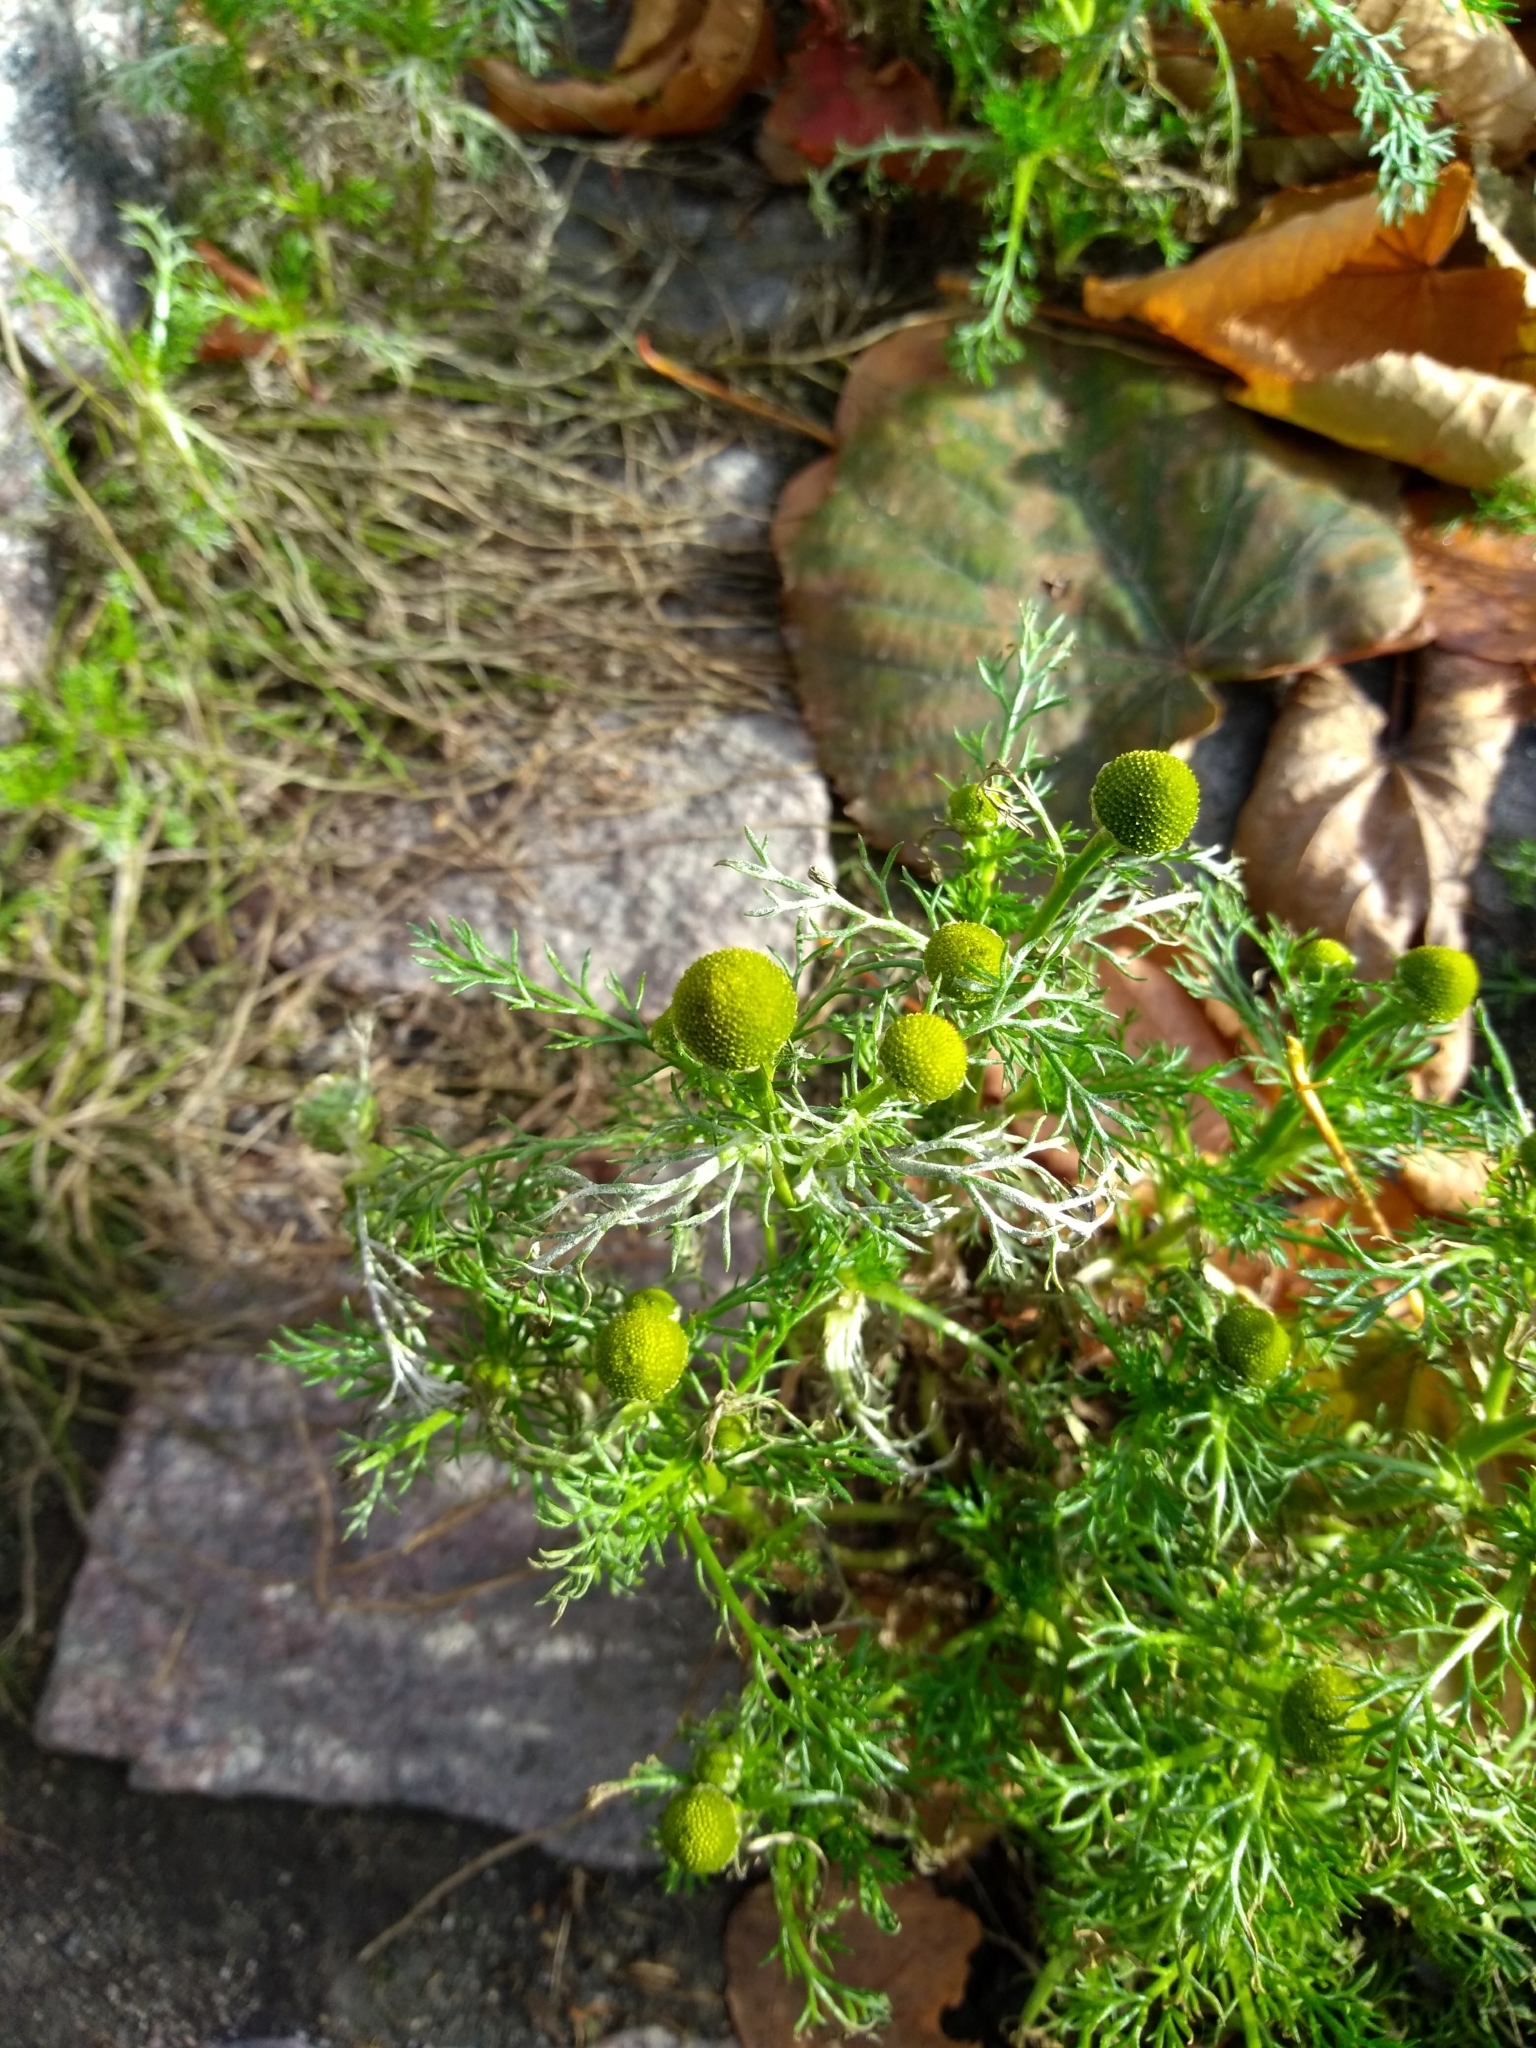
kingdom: Plantae
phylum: Tracheophyta
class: Magnoliopsida
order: Asterales
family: Asteraceae
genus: Matricaria
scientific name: Matricaria discoidea
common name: Disc mayweed
